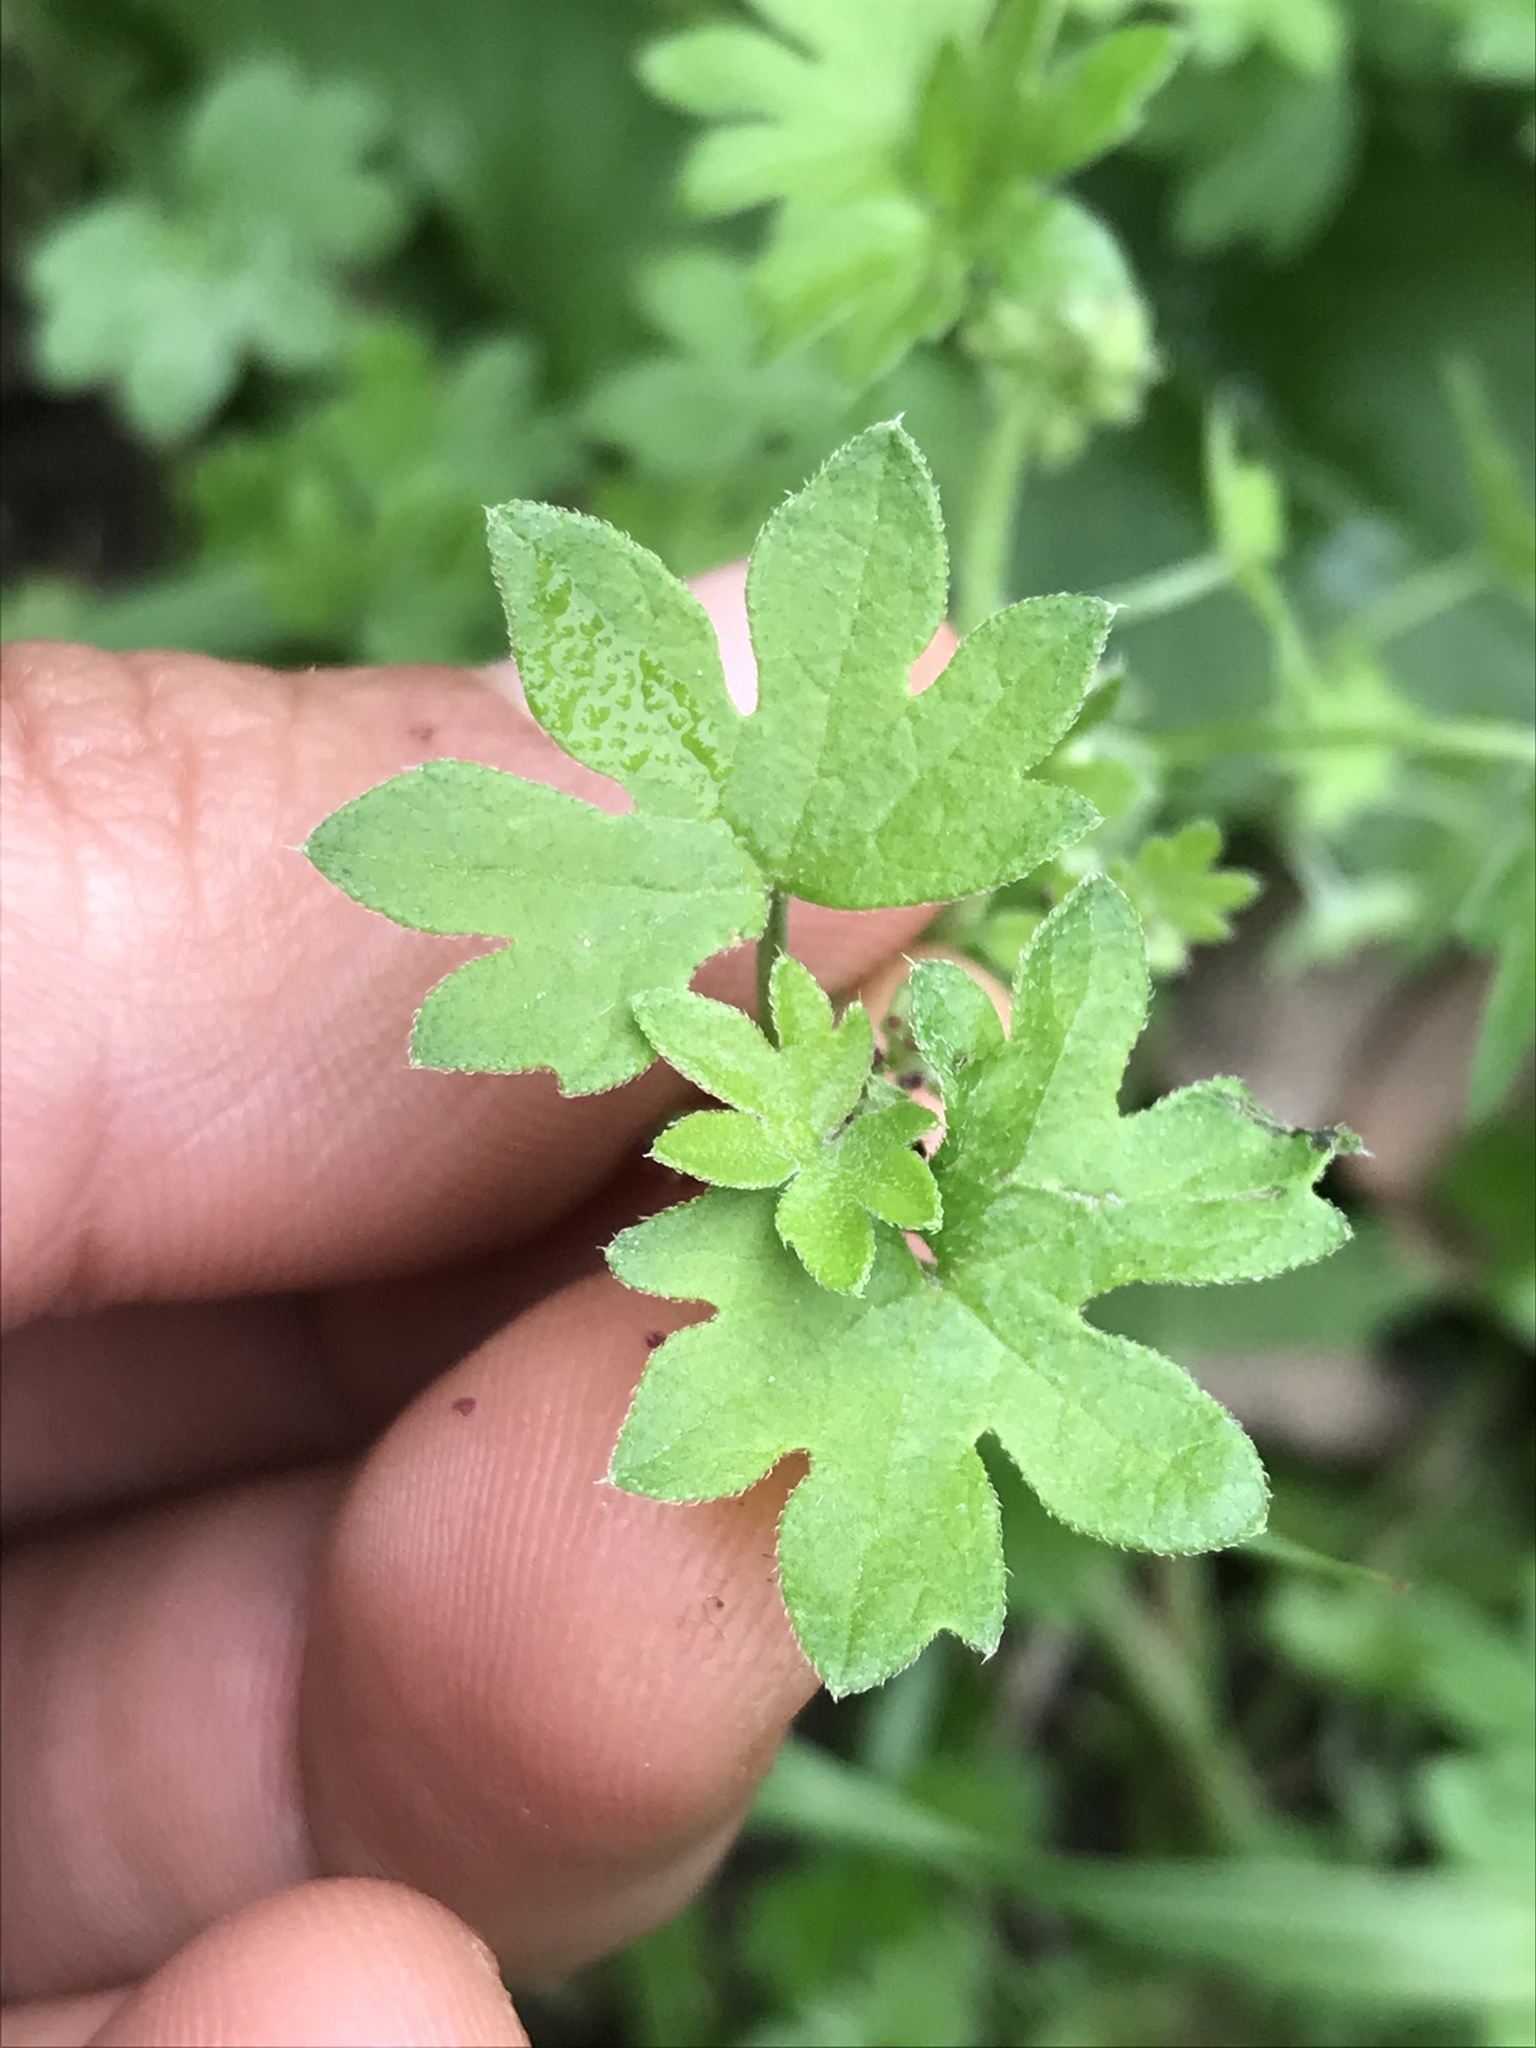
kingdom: Plantae
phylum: Tracheophyta
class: Magnoliopsida
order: Apiales
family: Apiaceae
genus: Bowlesia
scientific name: Bowlesia incana
